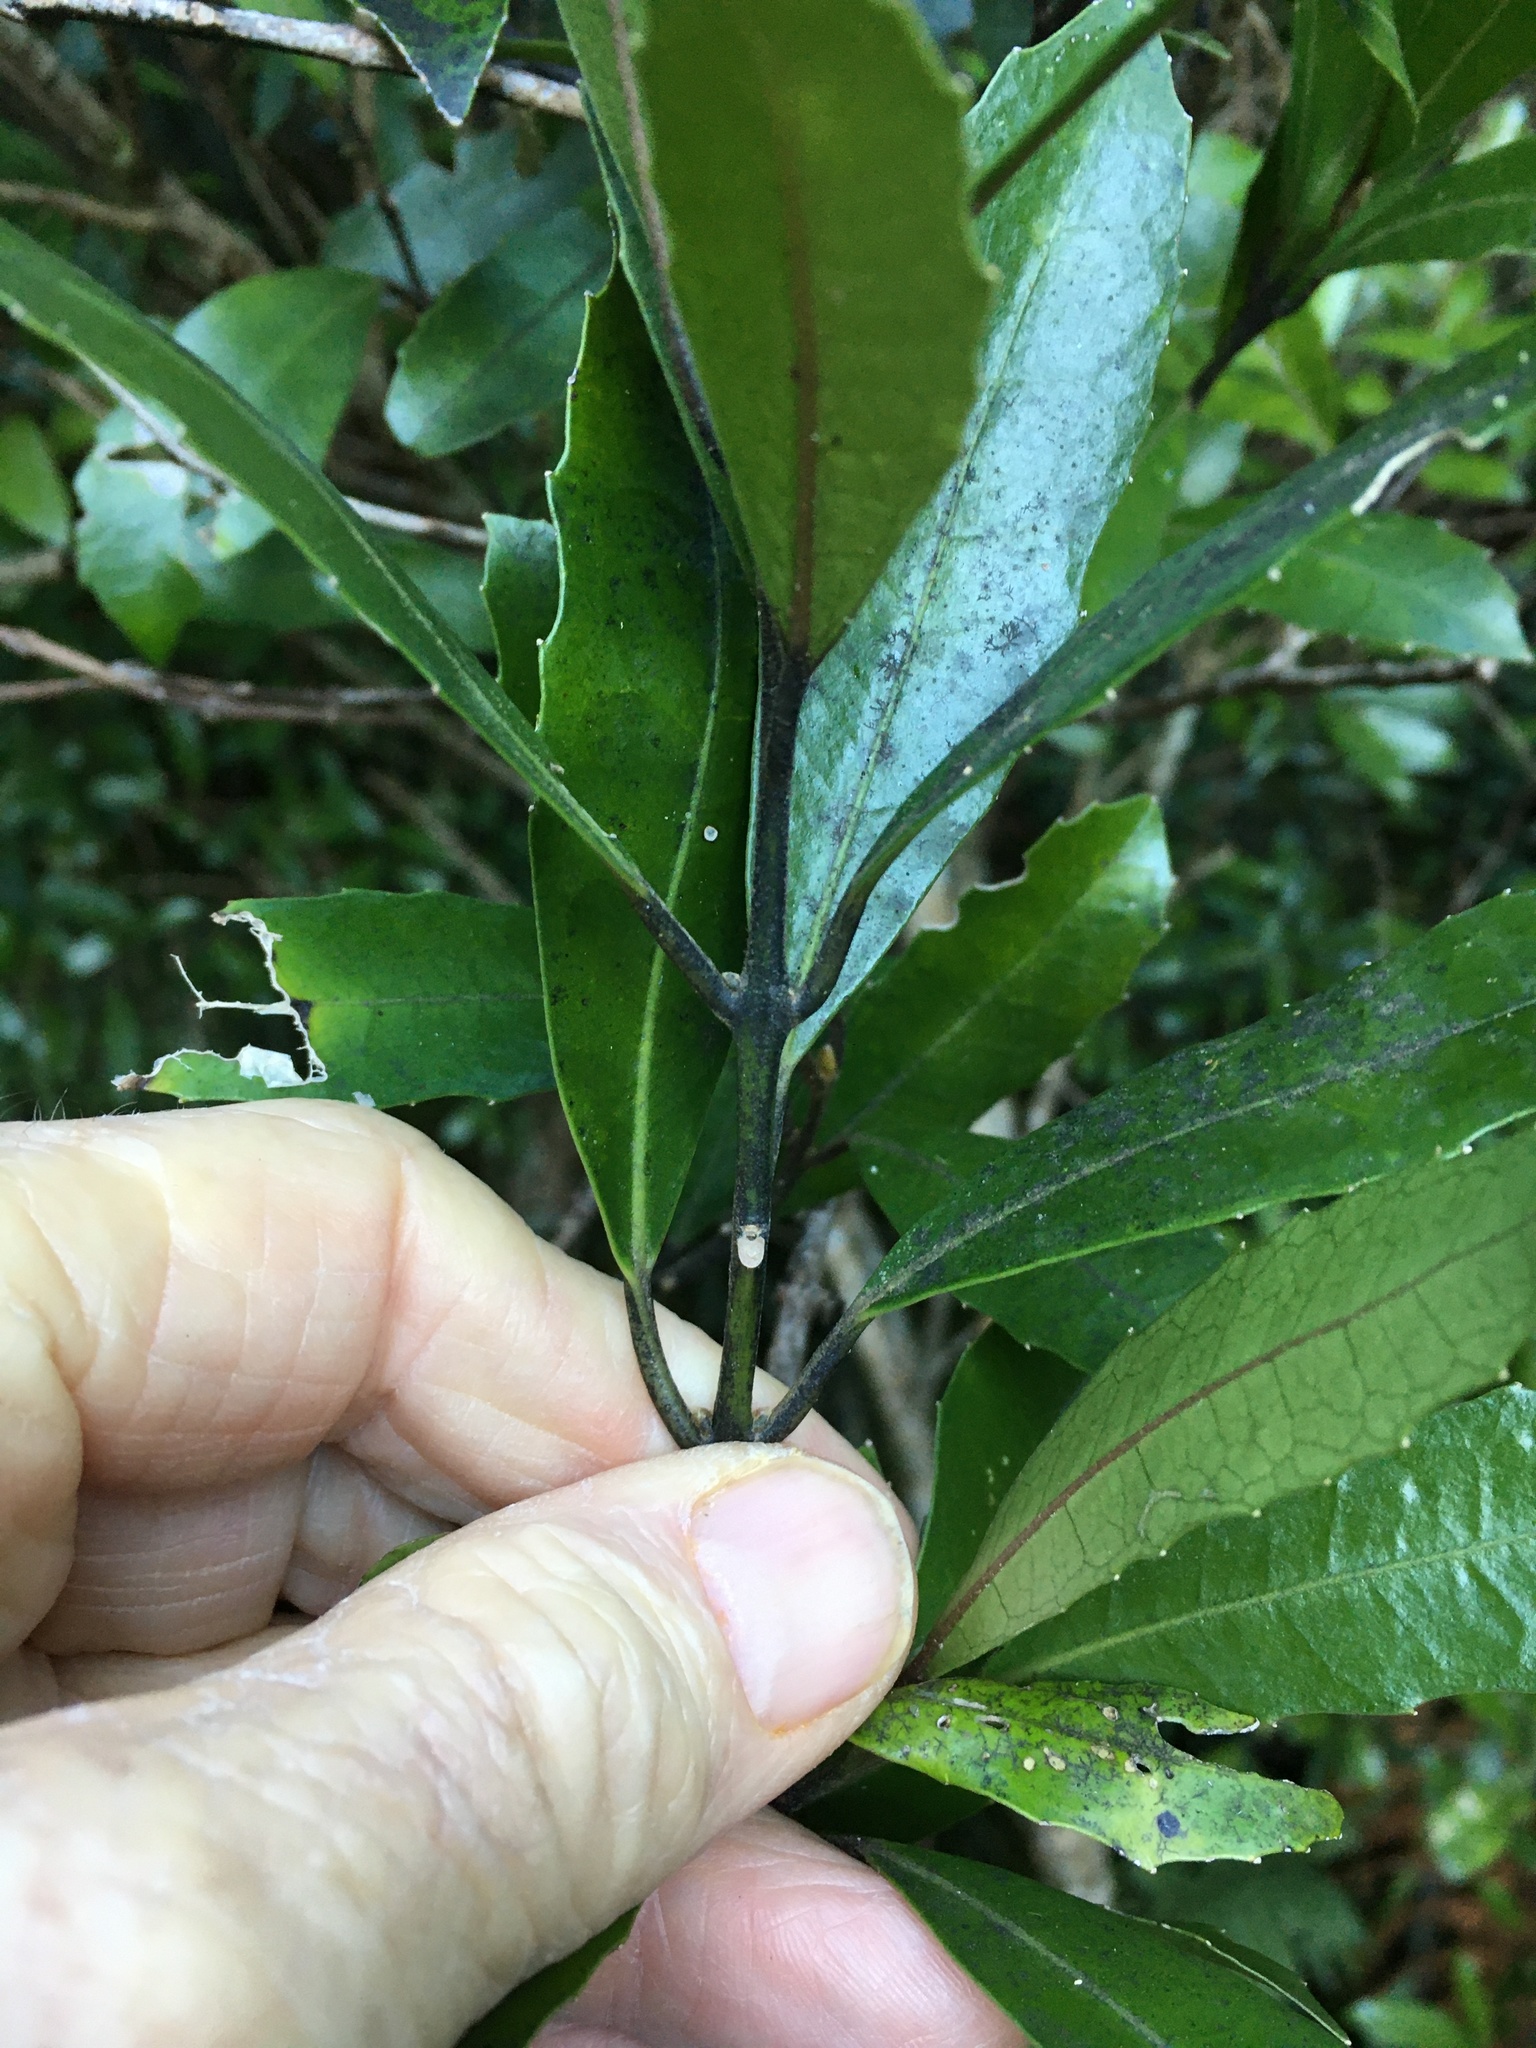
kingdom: Plantae
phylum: Tracheophyta
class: Magnoliopsida
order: Laurales
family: Monimiaceae
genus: Hedycarya
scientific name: Hedycarya arborea
